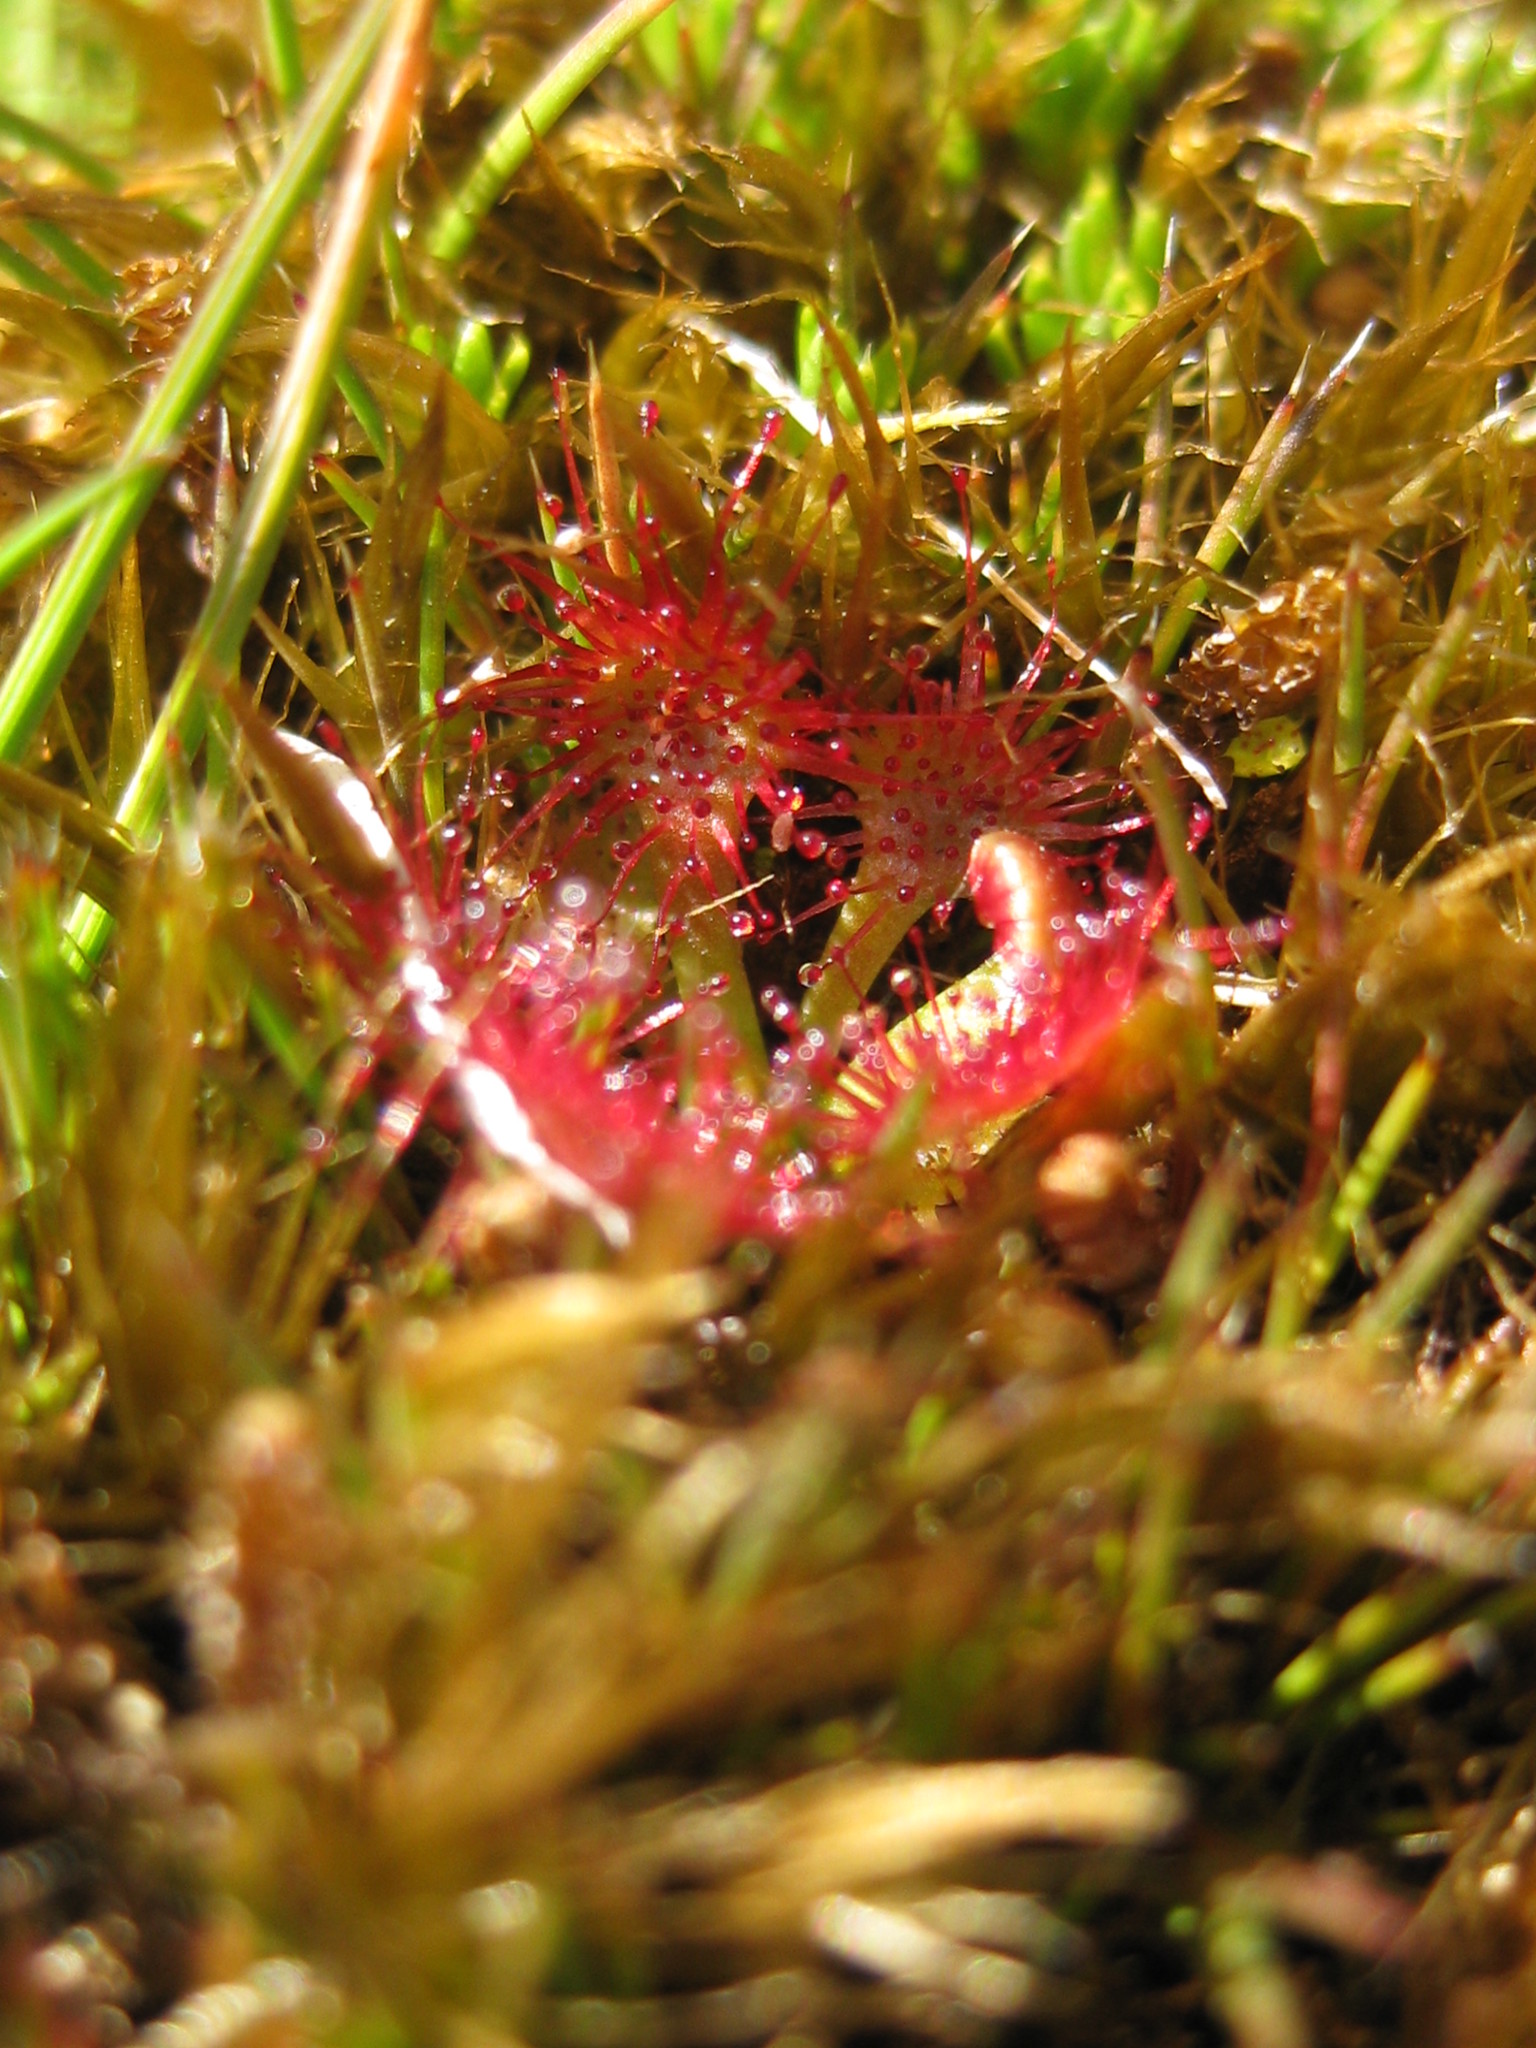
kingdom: Plantae
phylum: Tracheophyta
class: Magnoliopsida
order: Caryophyllales
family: Droseraceae
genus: Drosera
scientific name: Drosera spatulata
